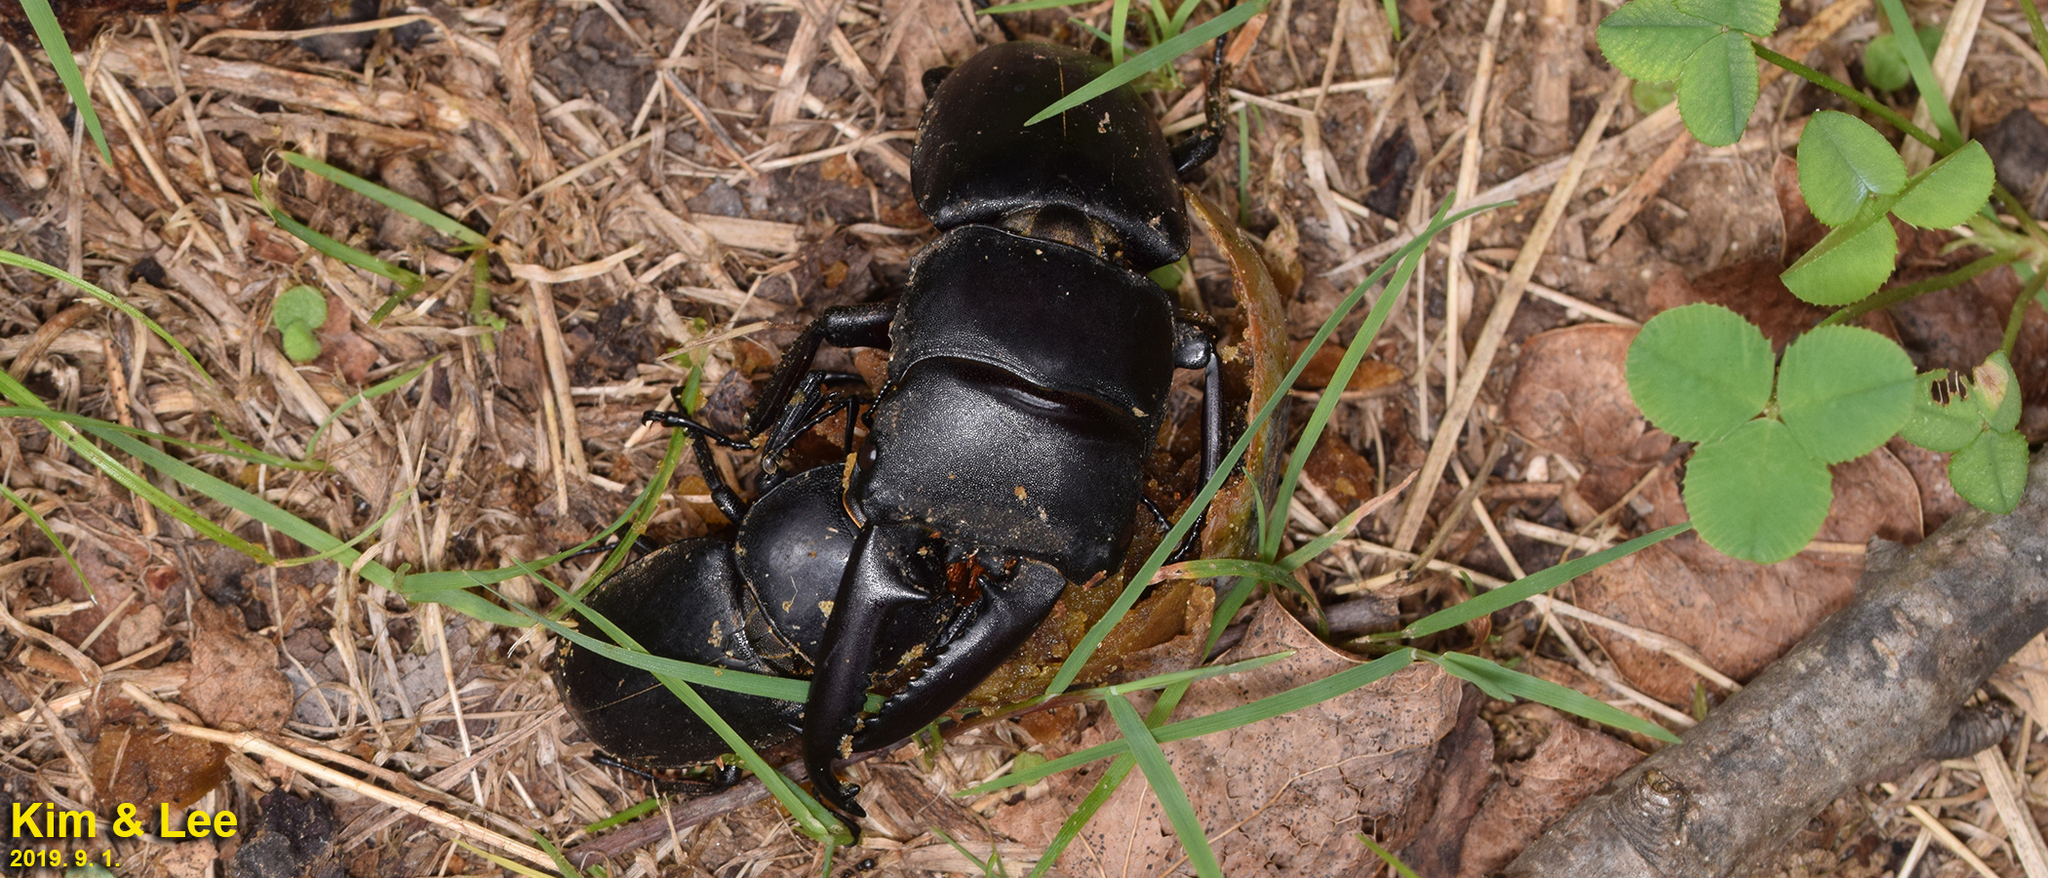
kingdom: Animalia
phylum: Arthropoda
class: Insecta
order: Coleoptera
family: Lucanidae
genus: Serrognathus
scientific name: Serrognathus titanus
